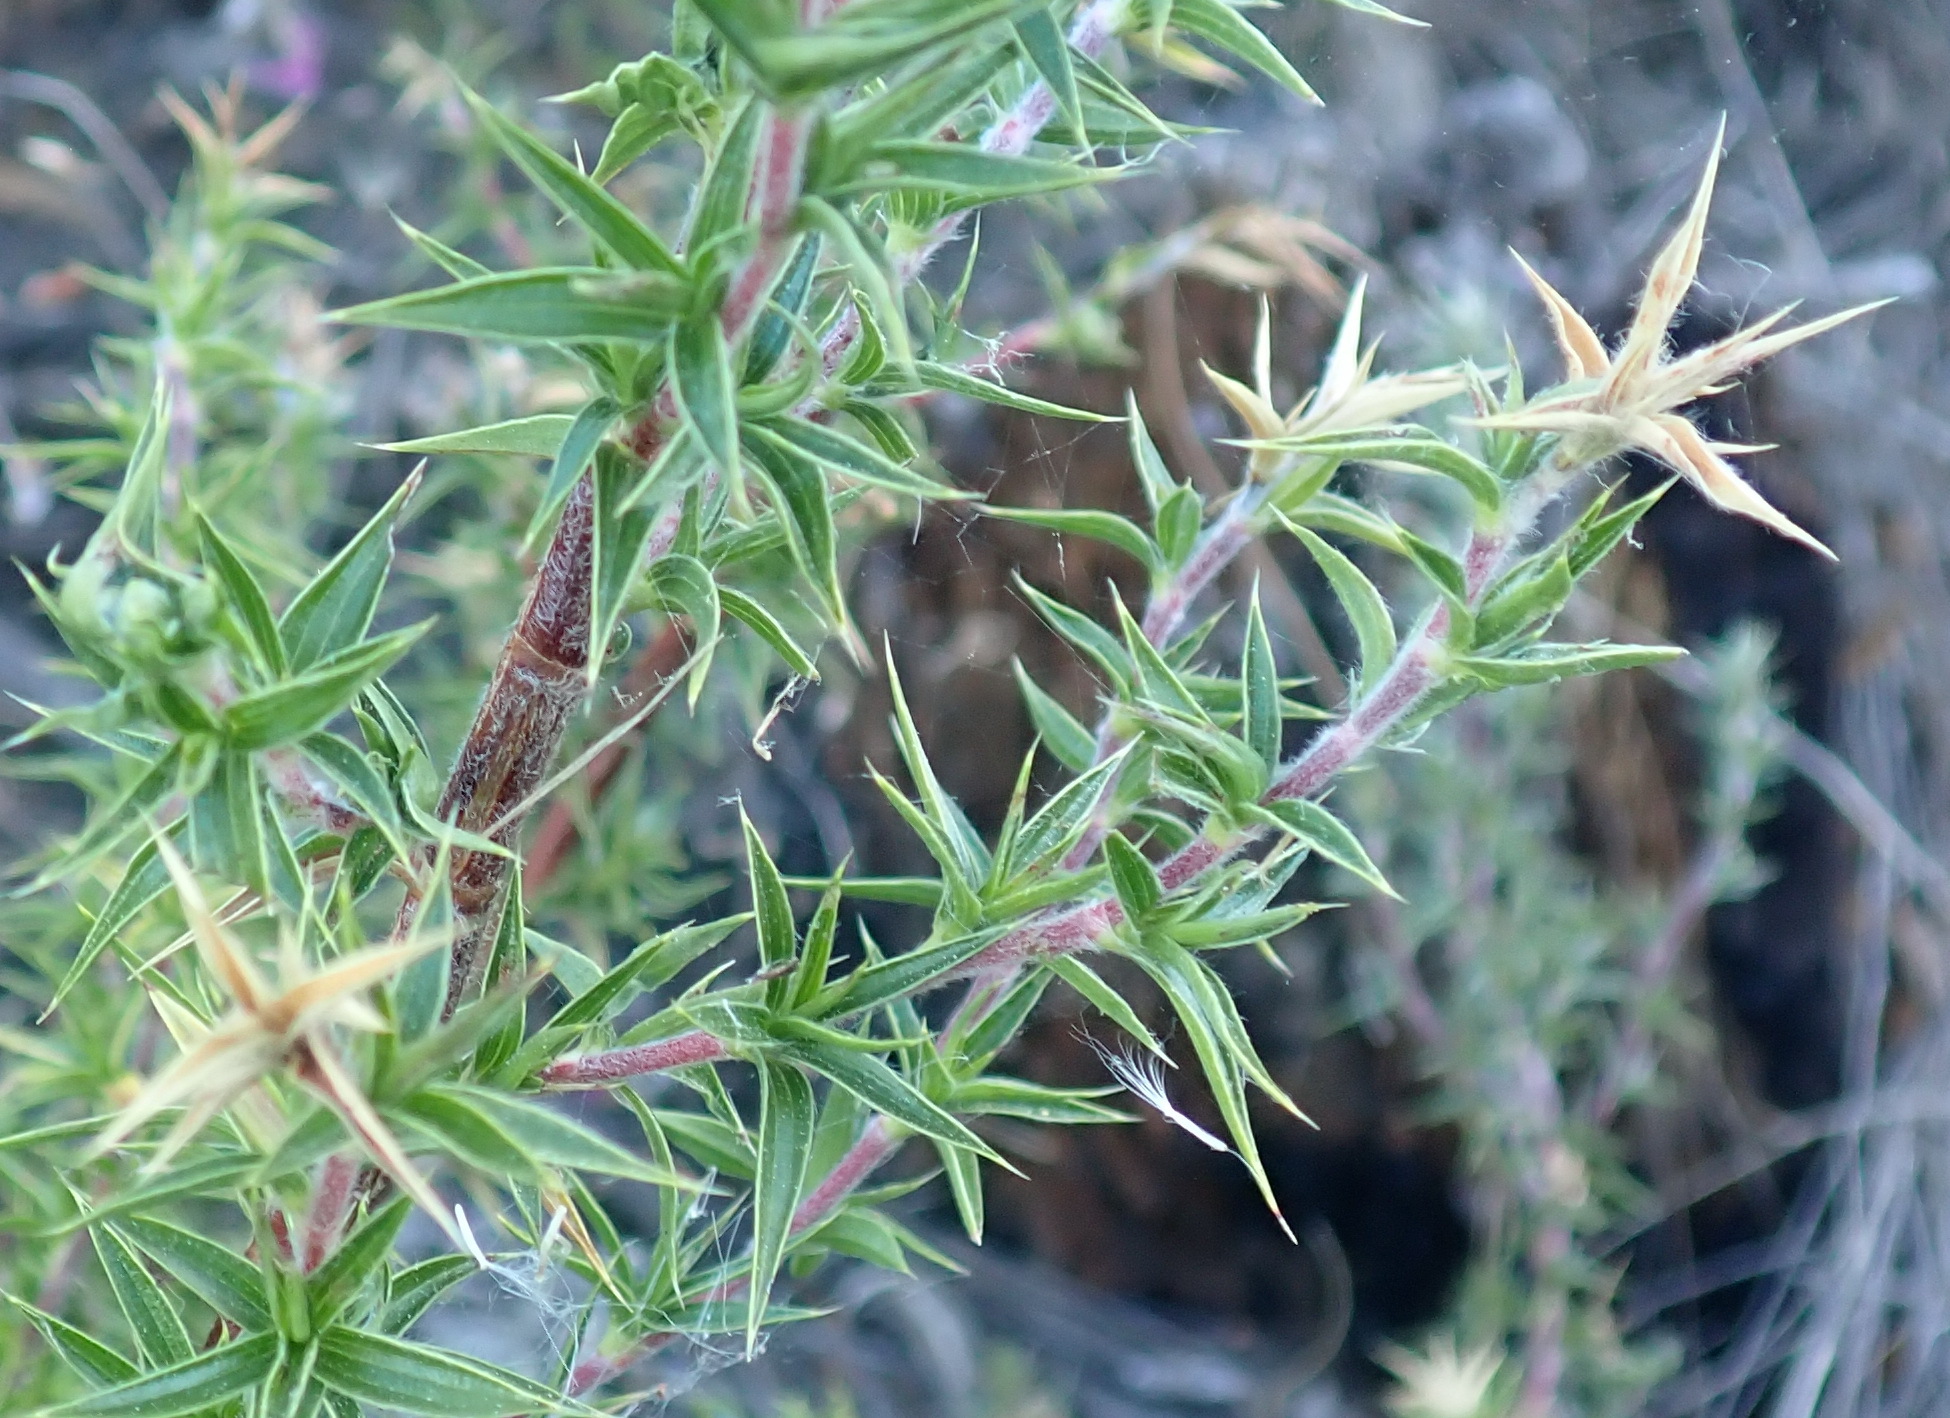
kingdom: Plantae
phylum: Tracheophyta
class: Magnoliopsida
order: Rosales
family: Rosaceae
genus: Cliffortia
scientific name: Cliffortia ruscifolia
